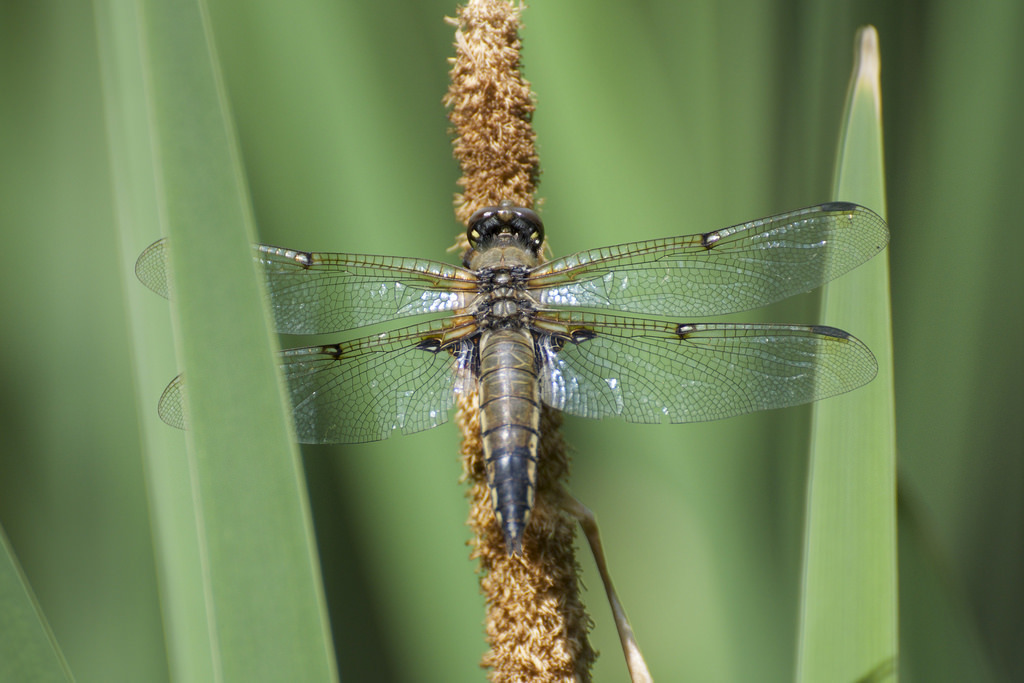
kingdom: Animalia
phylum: Arthropoda
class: Insecta
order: Odonata
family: Libellulidae
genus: Libellula
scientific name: Libellula quadrimaculata
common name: Four-spotted chaser
